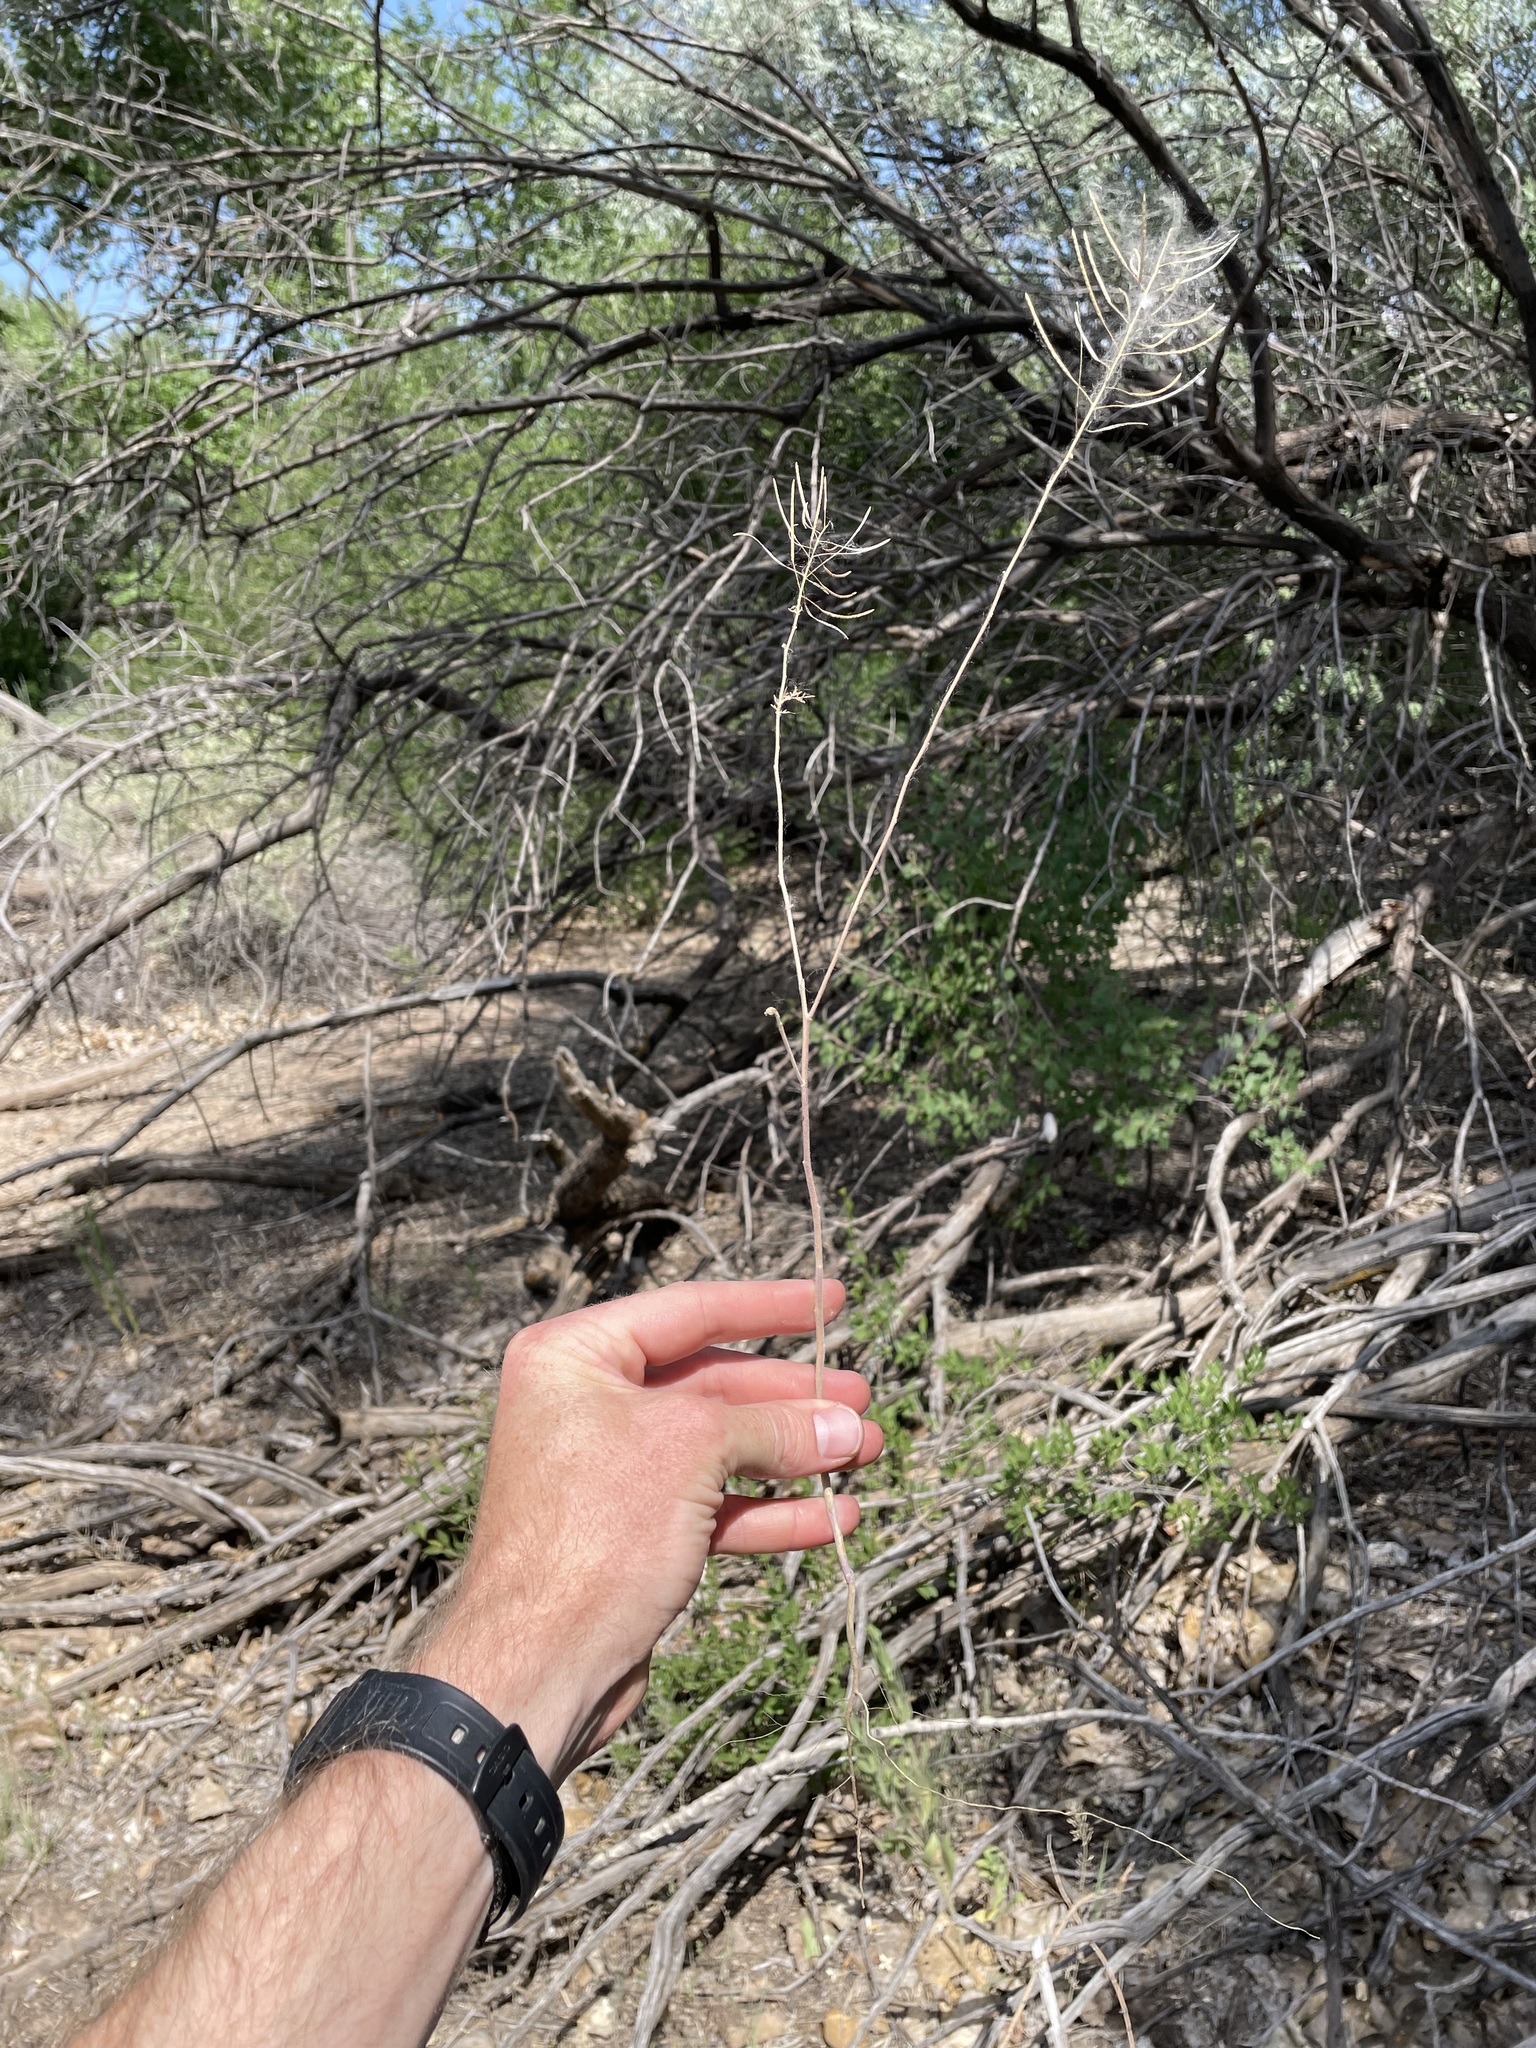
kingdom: Plantae
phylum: Tracheophyta
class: Magnoliopsida
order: Brassicales
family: Brassicaceae
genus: Sisymbrium
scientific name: Sisymbrium irio
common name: London rocket
